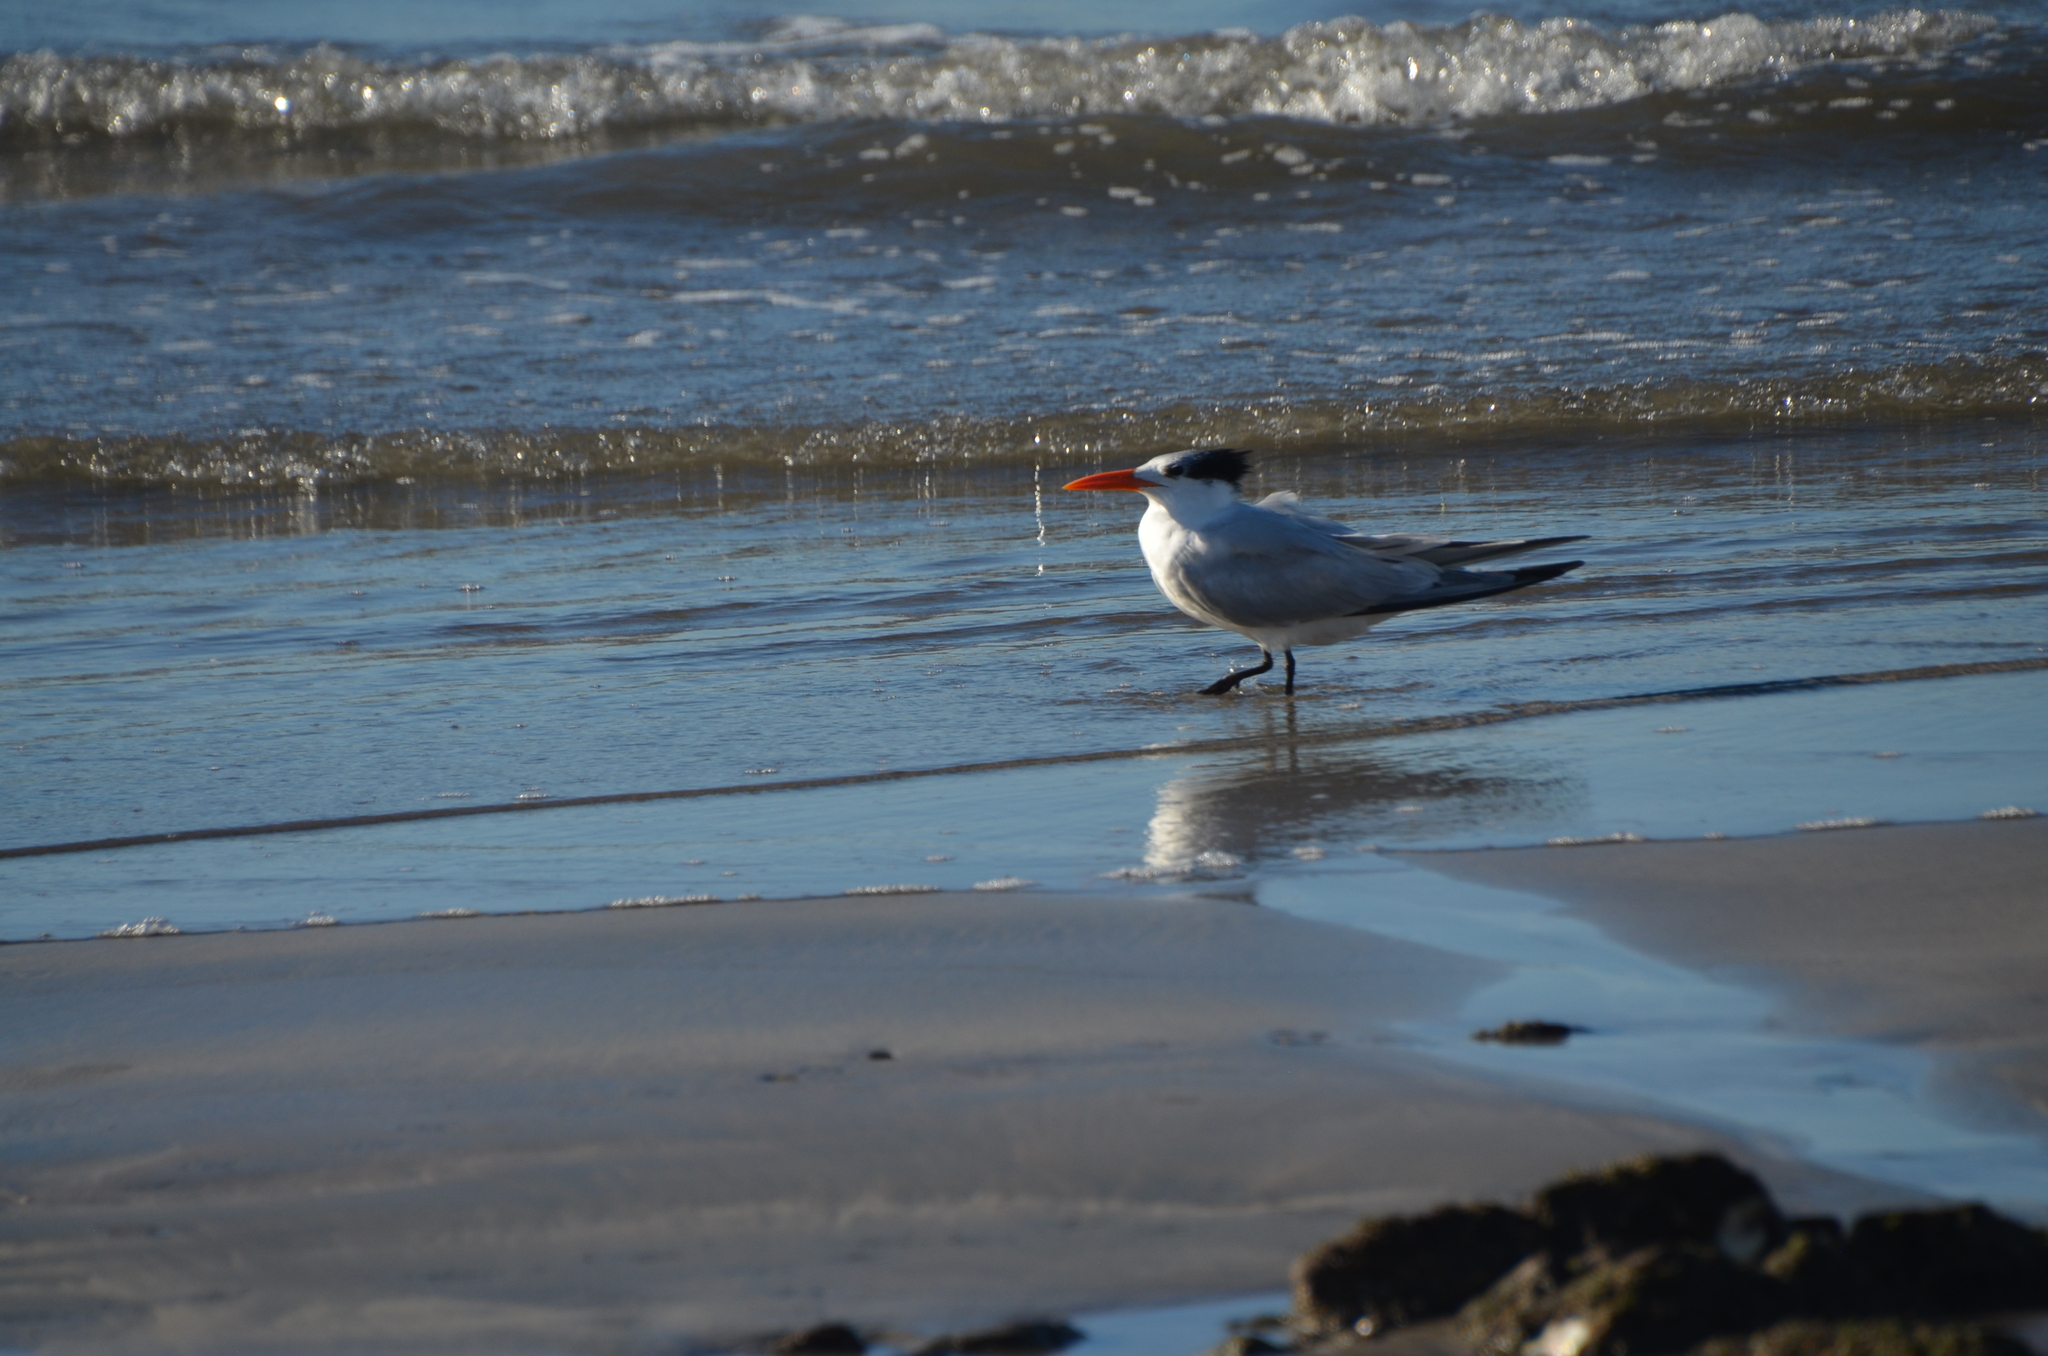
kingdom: Animalia
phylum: Chordata
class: Aves
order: Charadriiformes
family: Laridae
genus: Thalasseus
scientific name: Thalasseus maximus
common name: Royal tern
